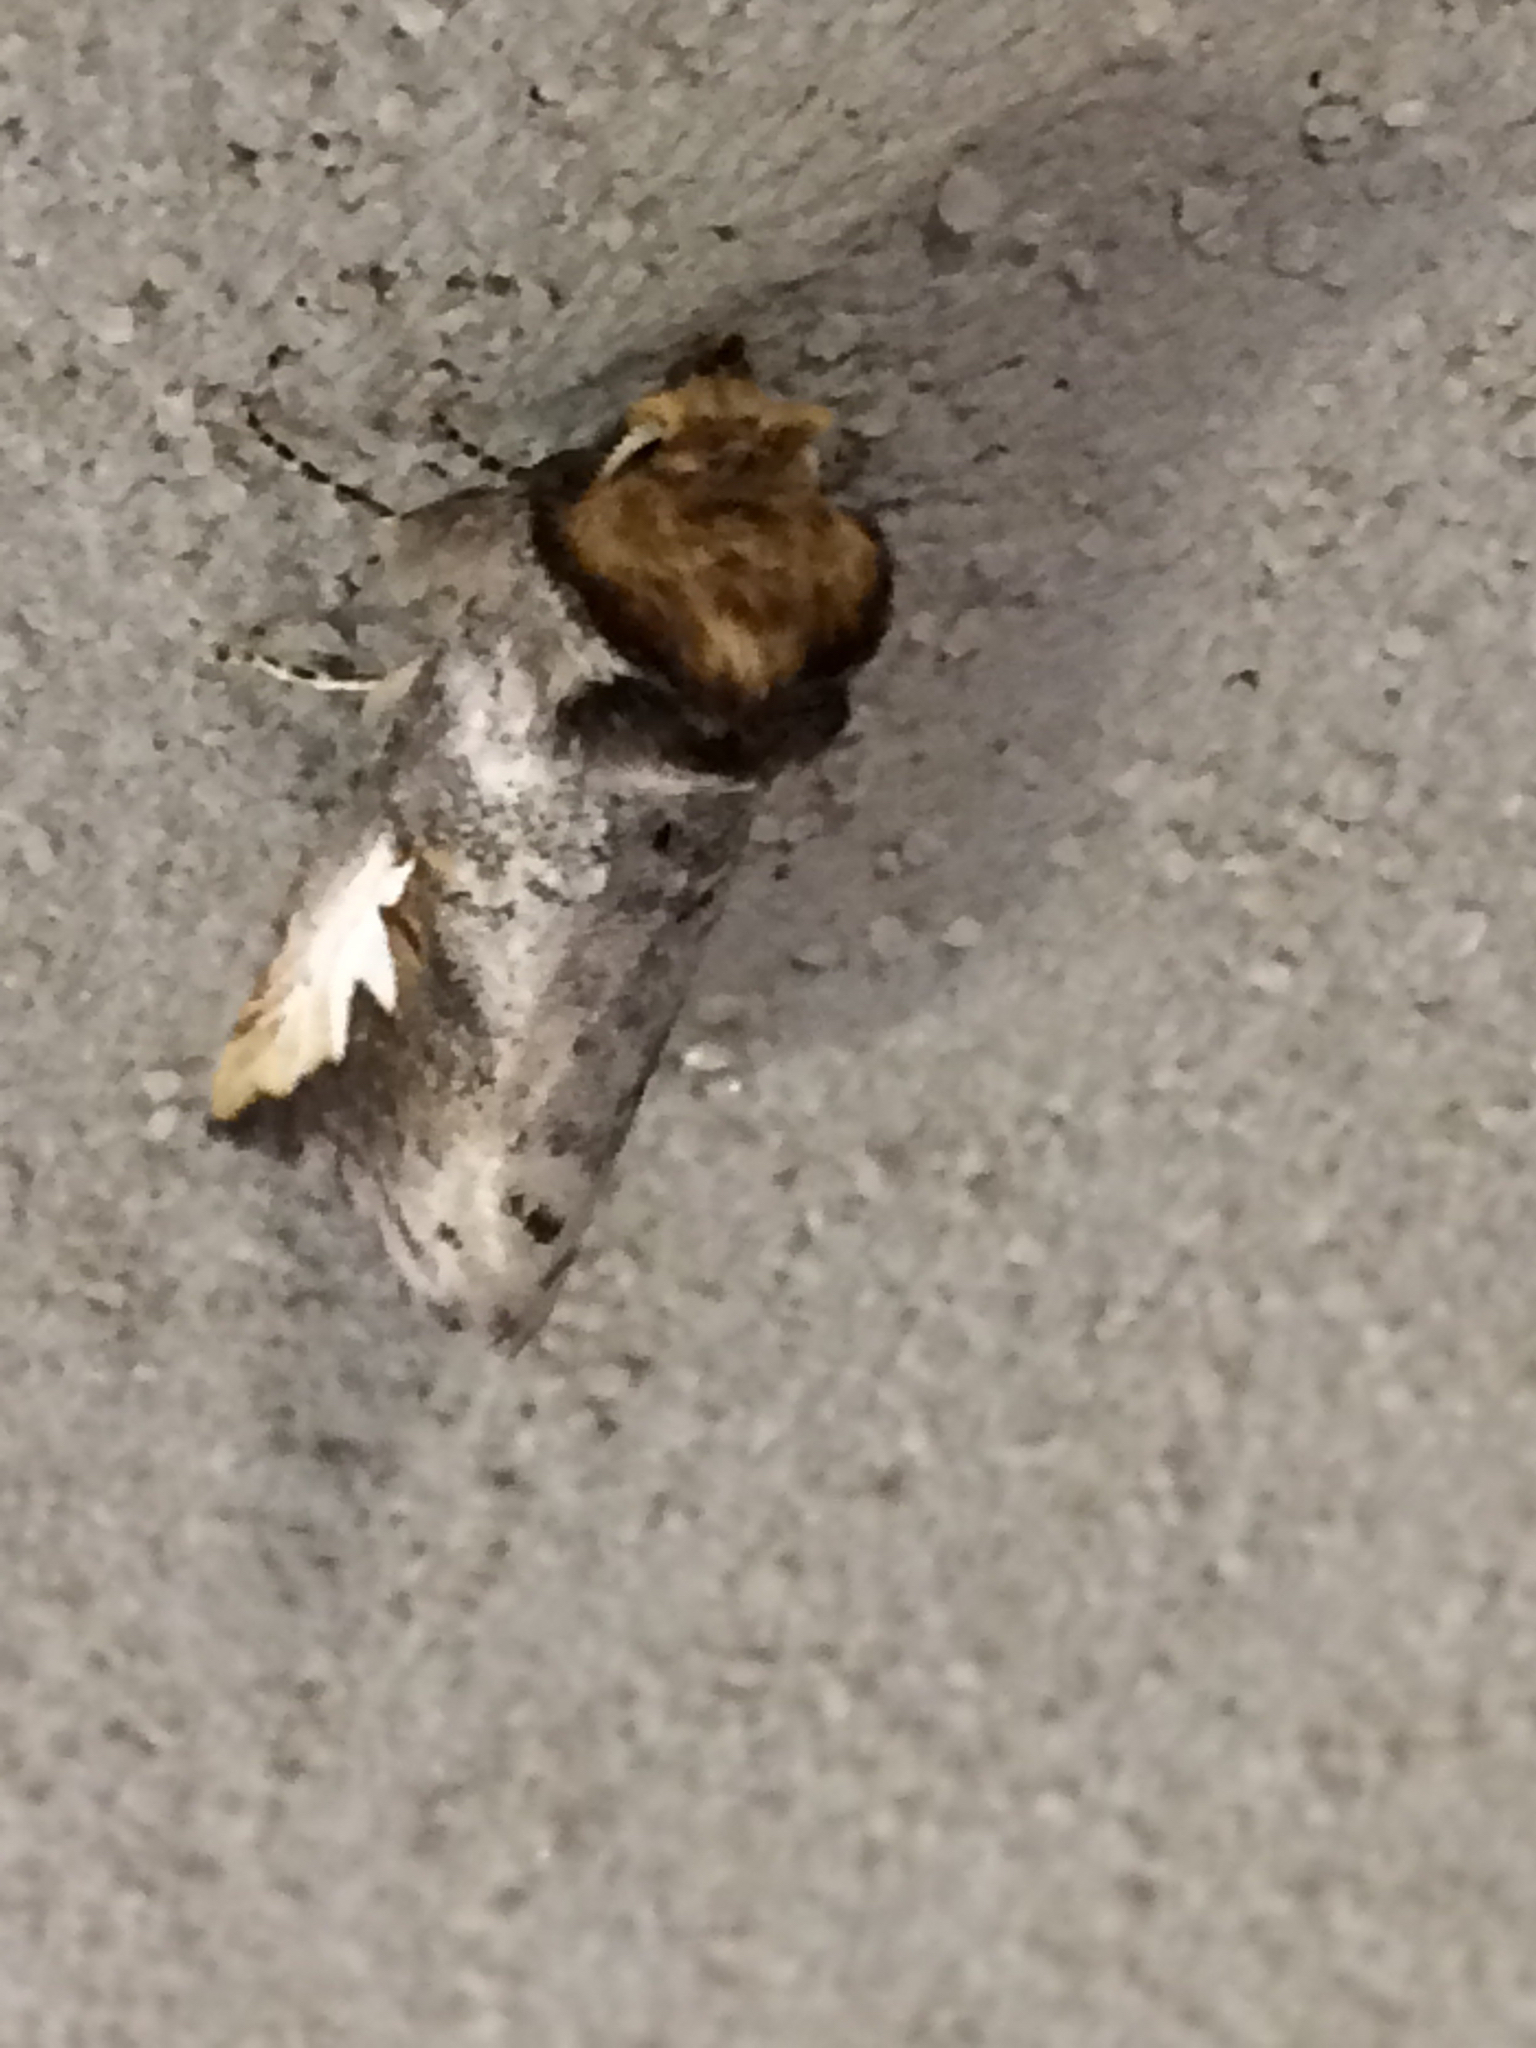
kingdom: Animalia
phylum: Arthropoda
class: Insecta
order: Lepidoptera
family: Notodontidae
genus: Symmerista
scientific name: Symmerista
